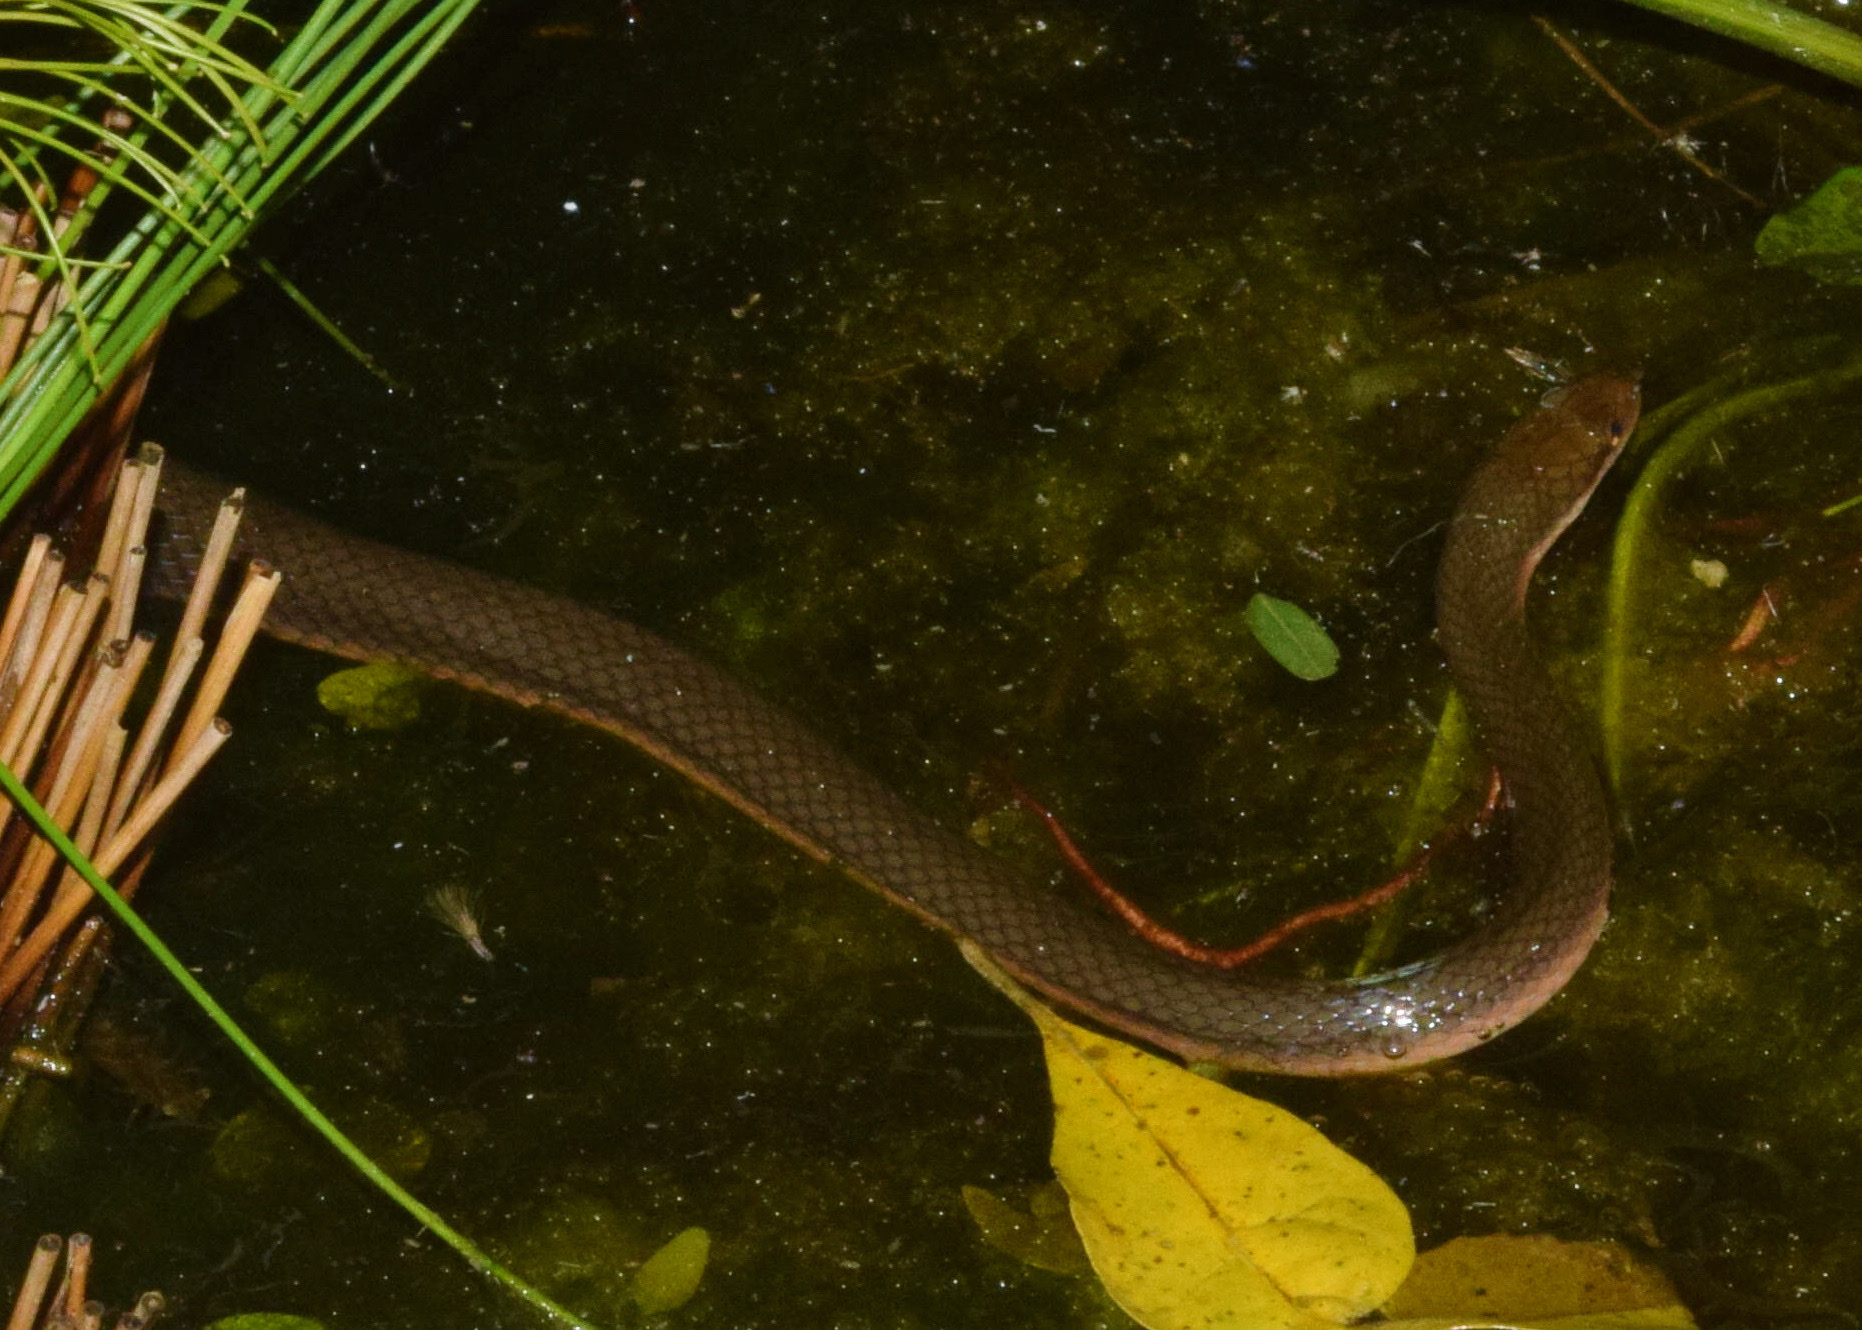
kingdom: Animalia
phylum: Chordata
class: Squamata
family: Lamprophiidae
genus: Lycodonomorphus
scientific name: Lycodonomorphus rufulus
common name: Brown water snake
